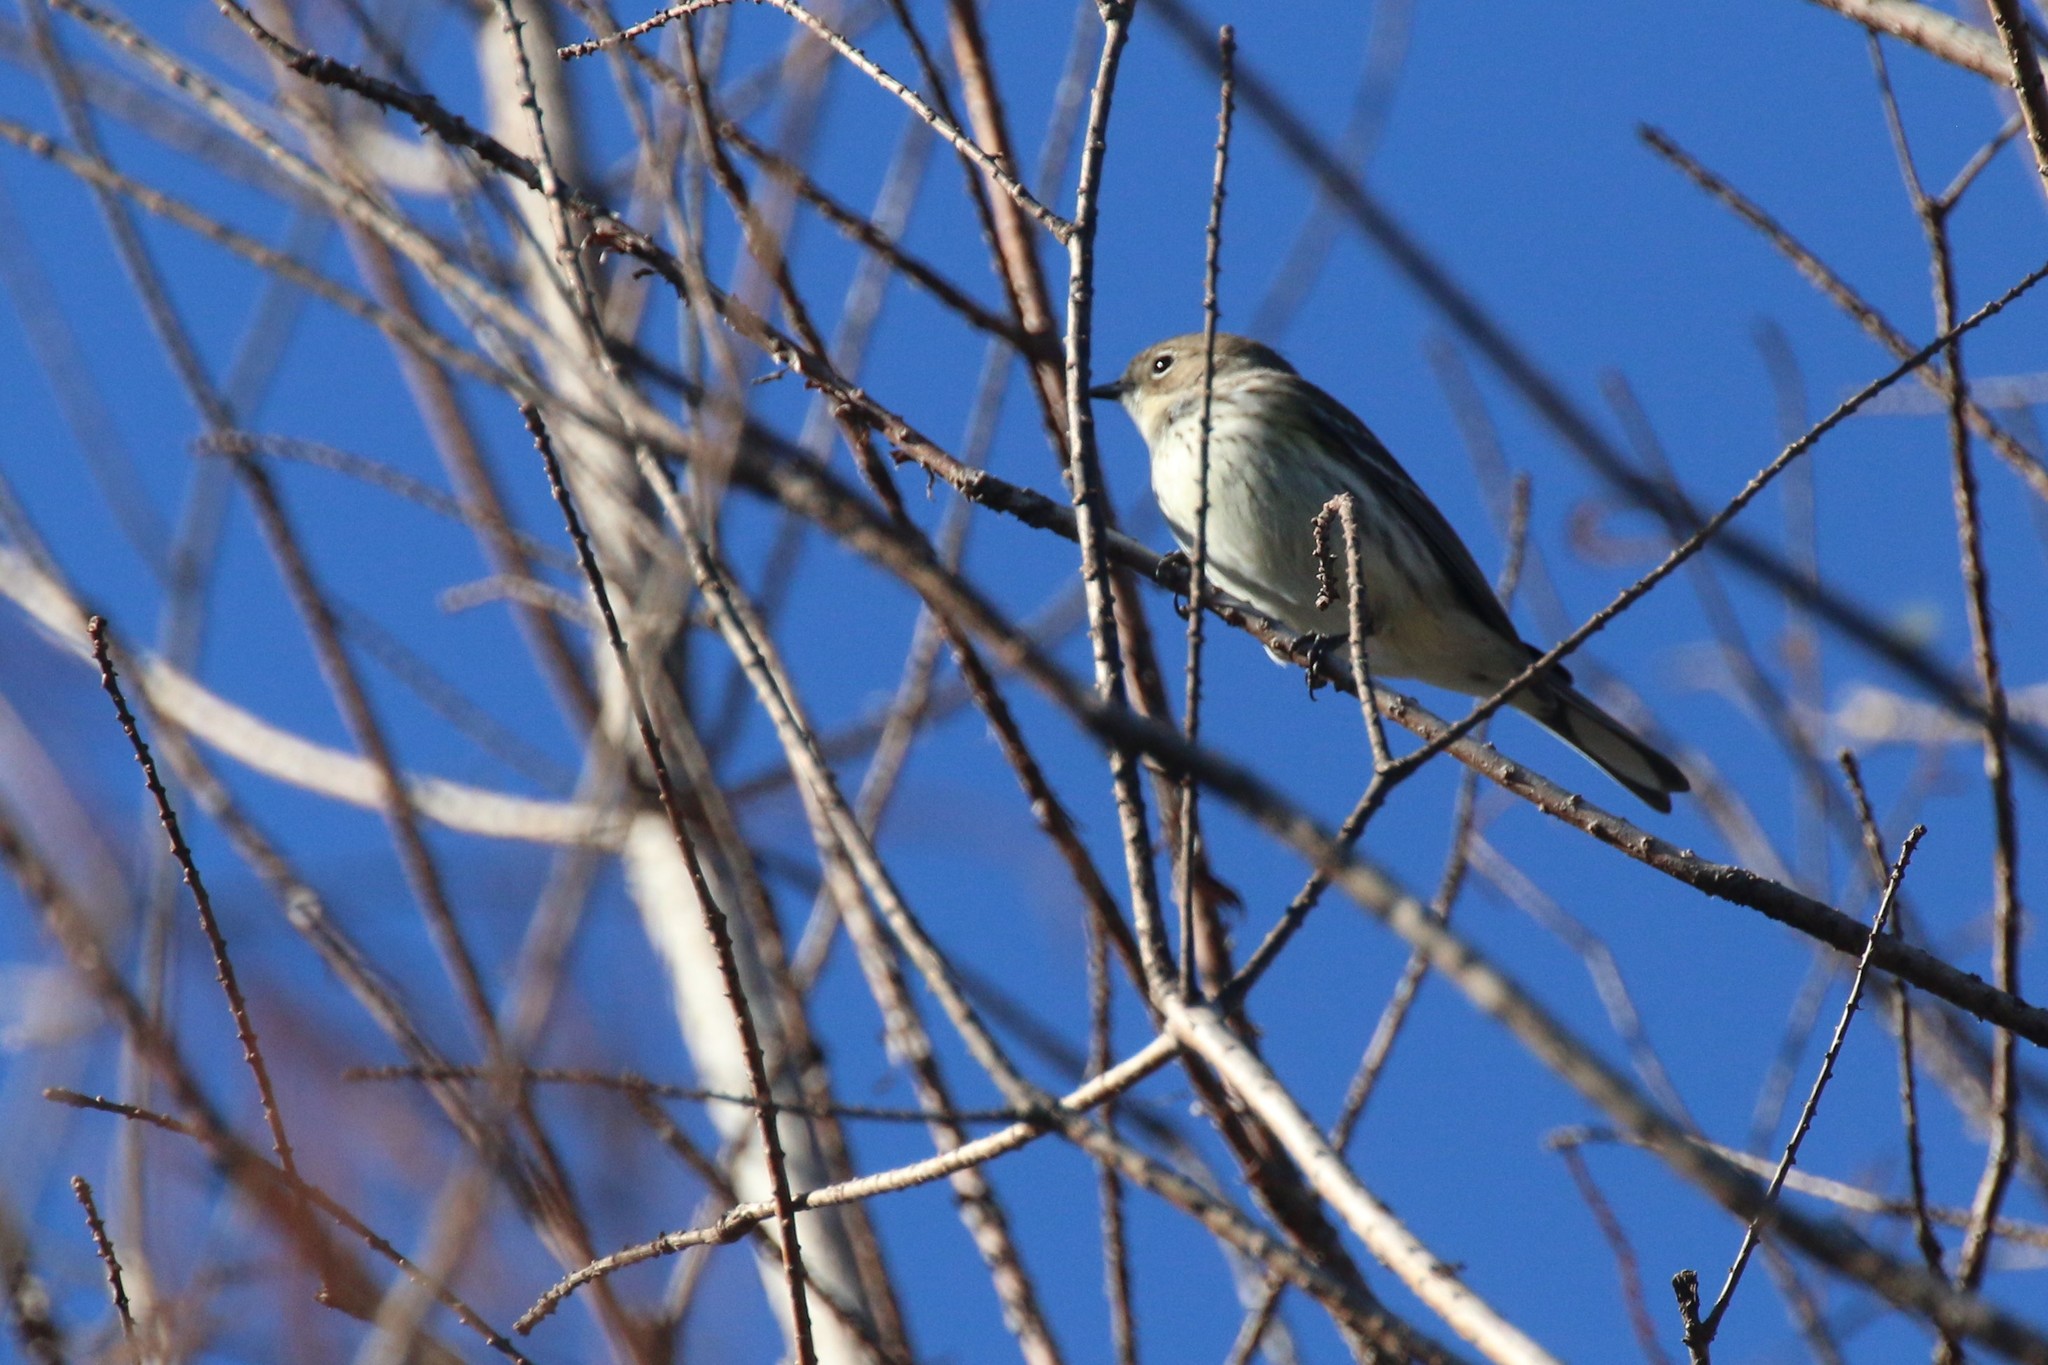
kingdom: Animalia
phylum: Chordata
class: Aves
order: Passeriformes
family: Parulidae
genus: Setophaga
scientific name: Setophaga coronata
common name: Myrtle warbler
